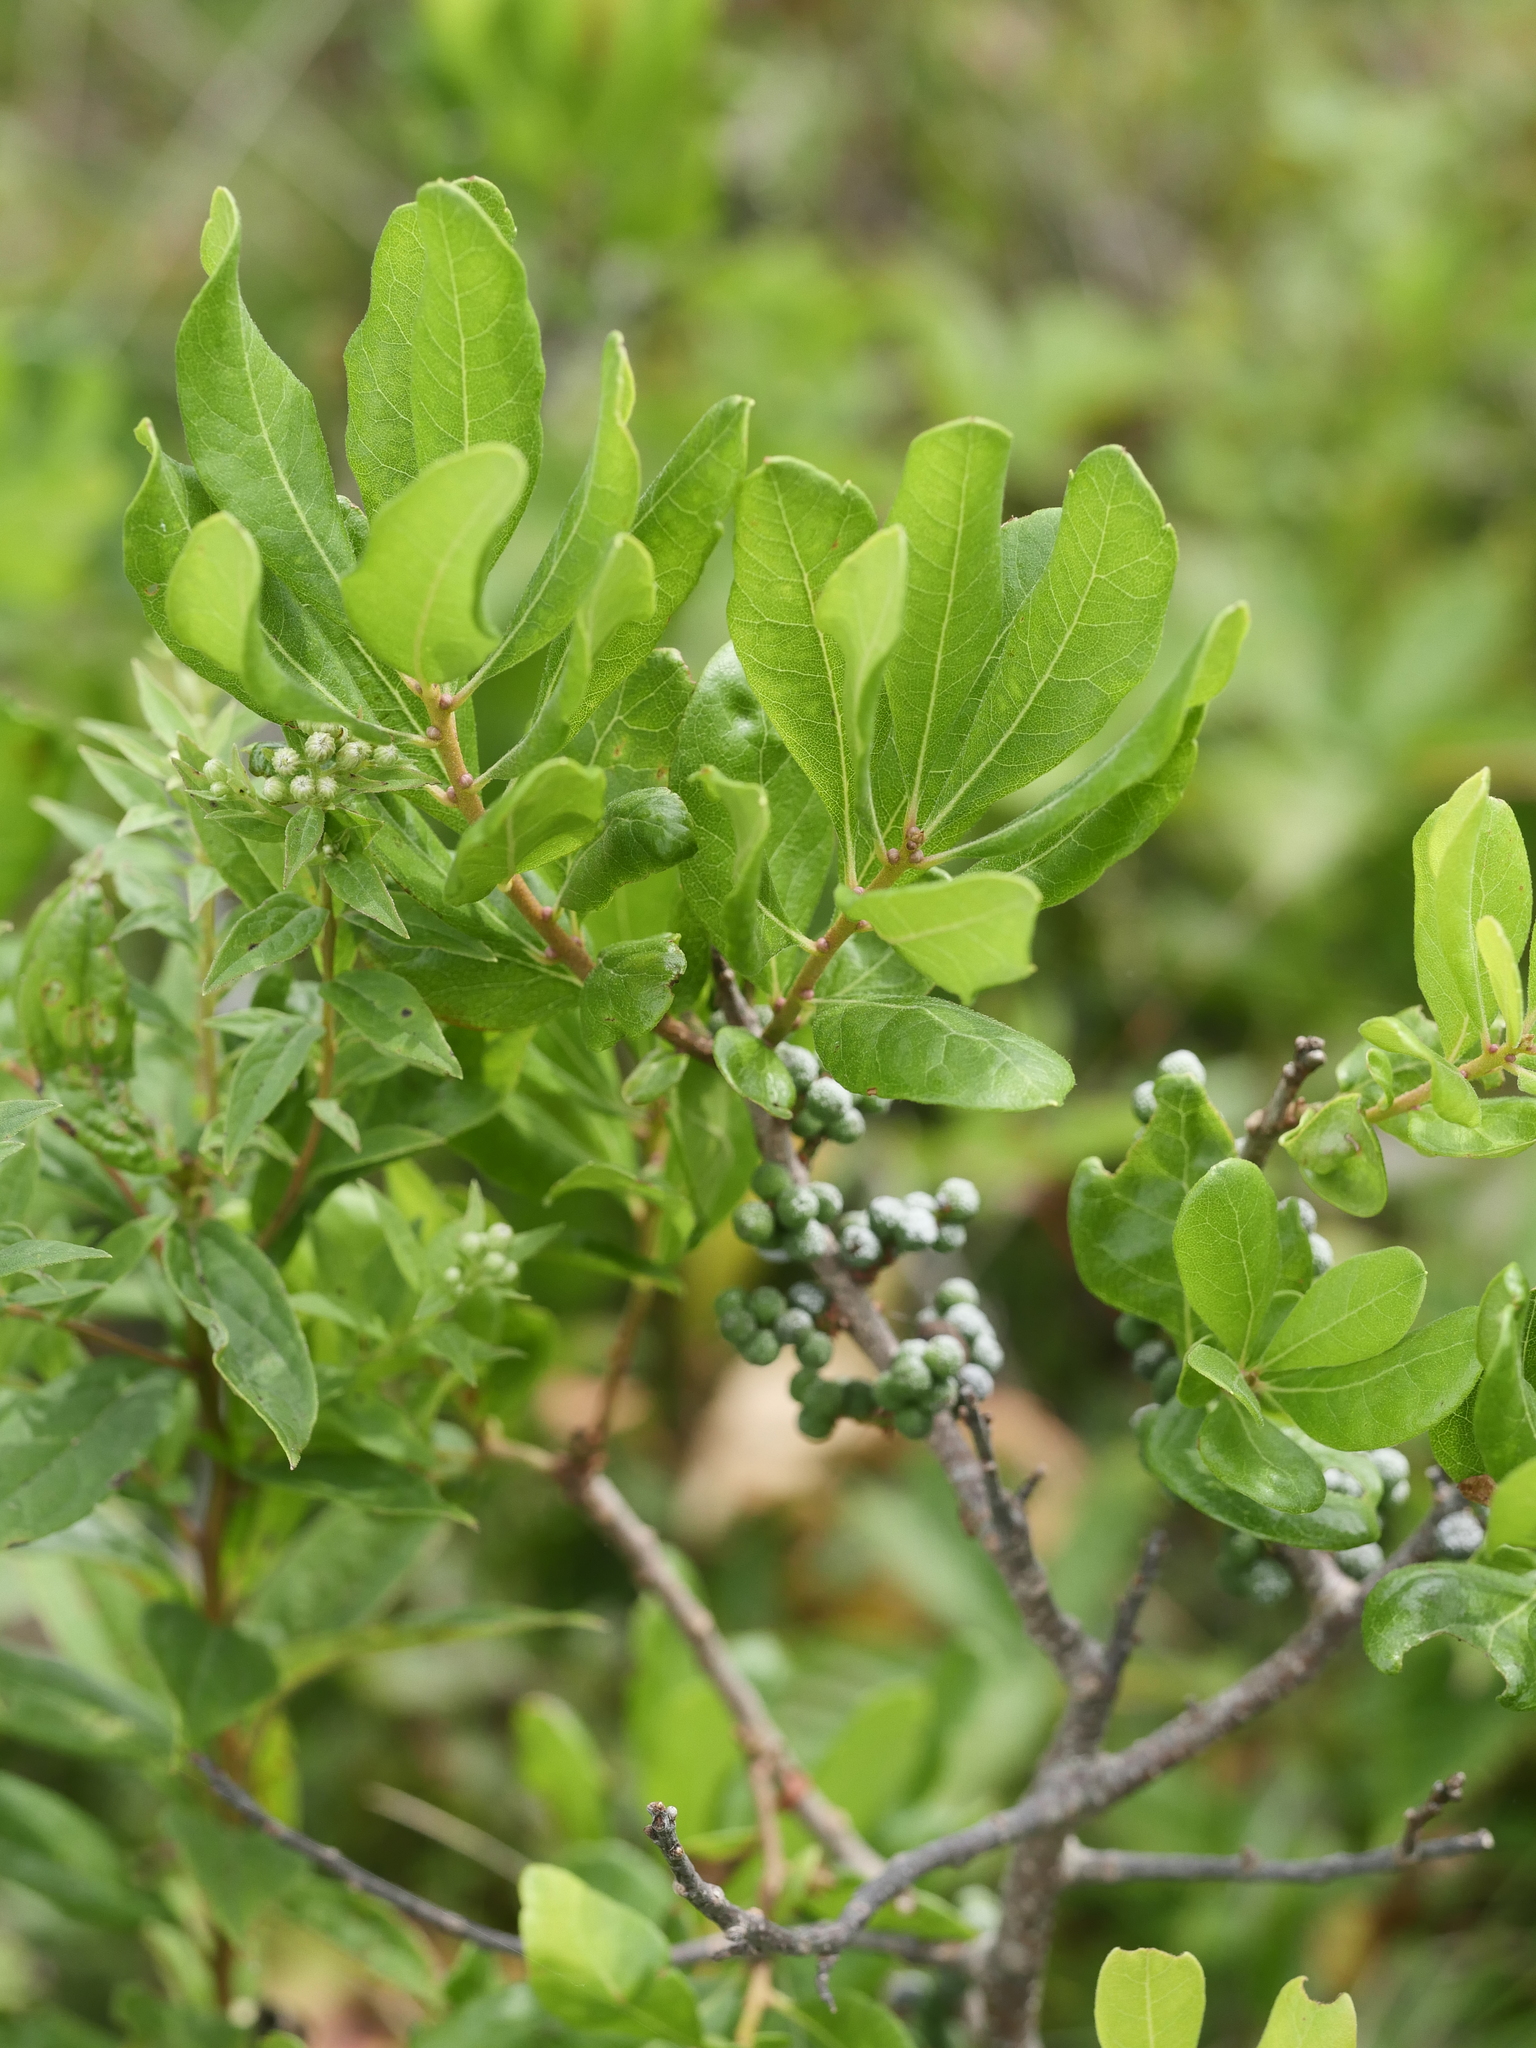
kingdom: Plantae
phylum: Tracheophyta
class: Magnoliopsida
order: Fagales
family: Myricaceae
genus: Morella
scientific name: Morella pensylvanica
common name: Northern bayberry
